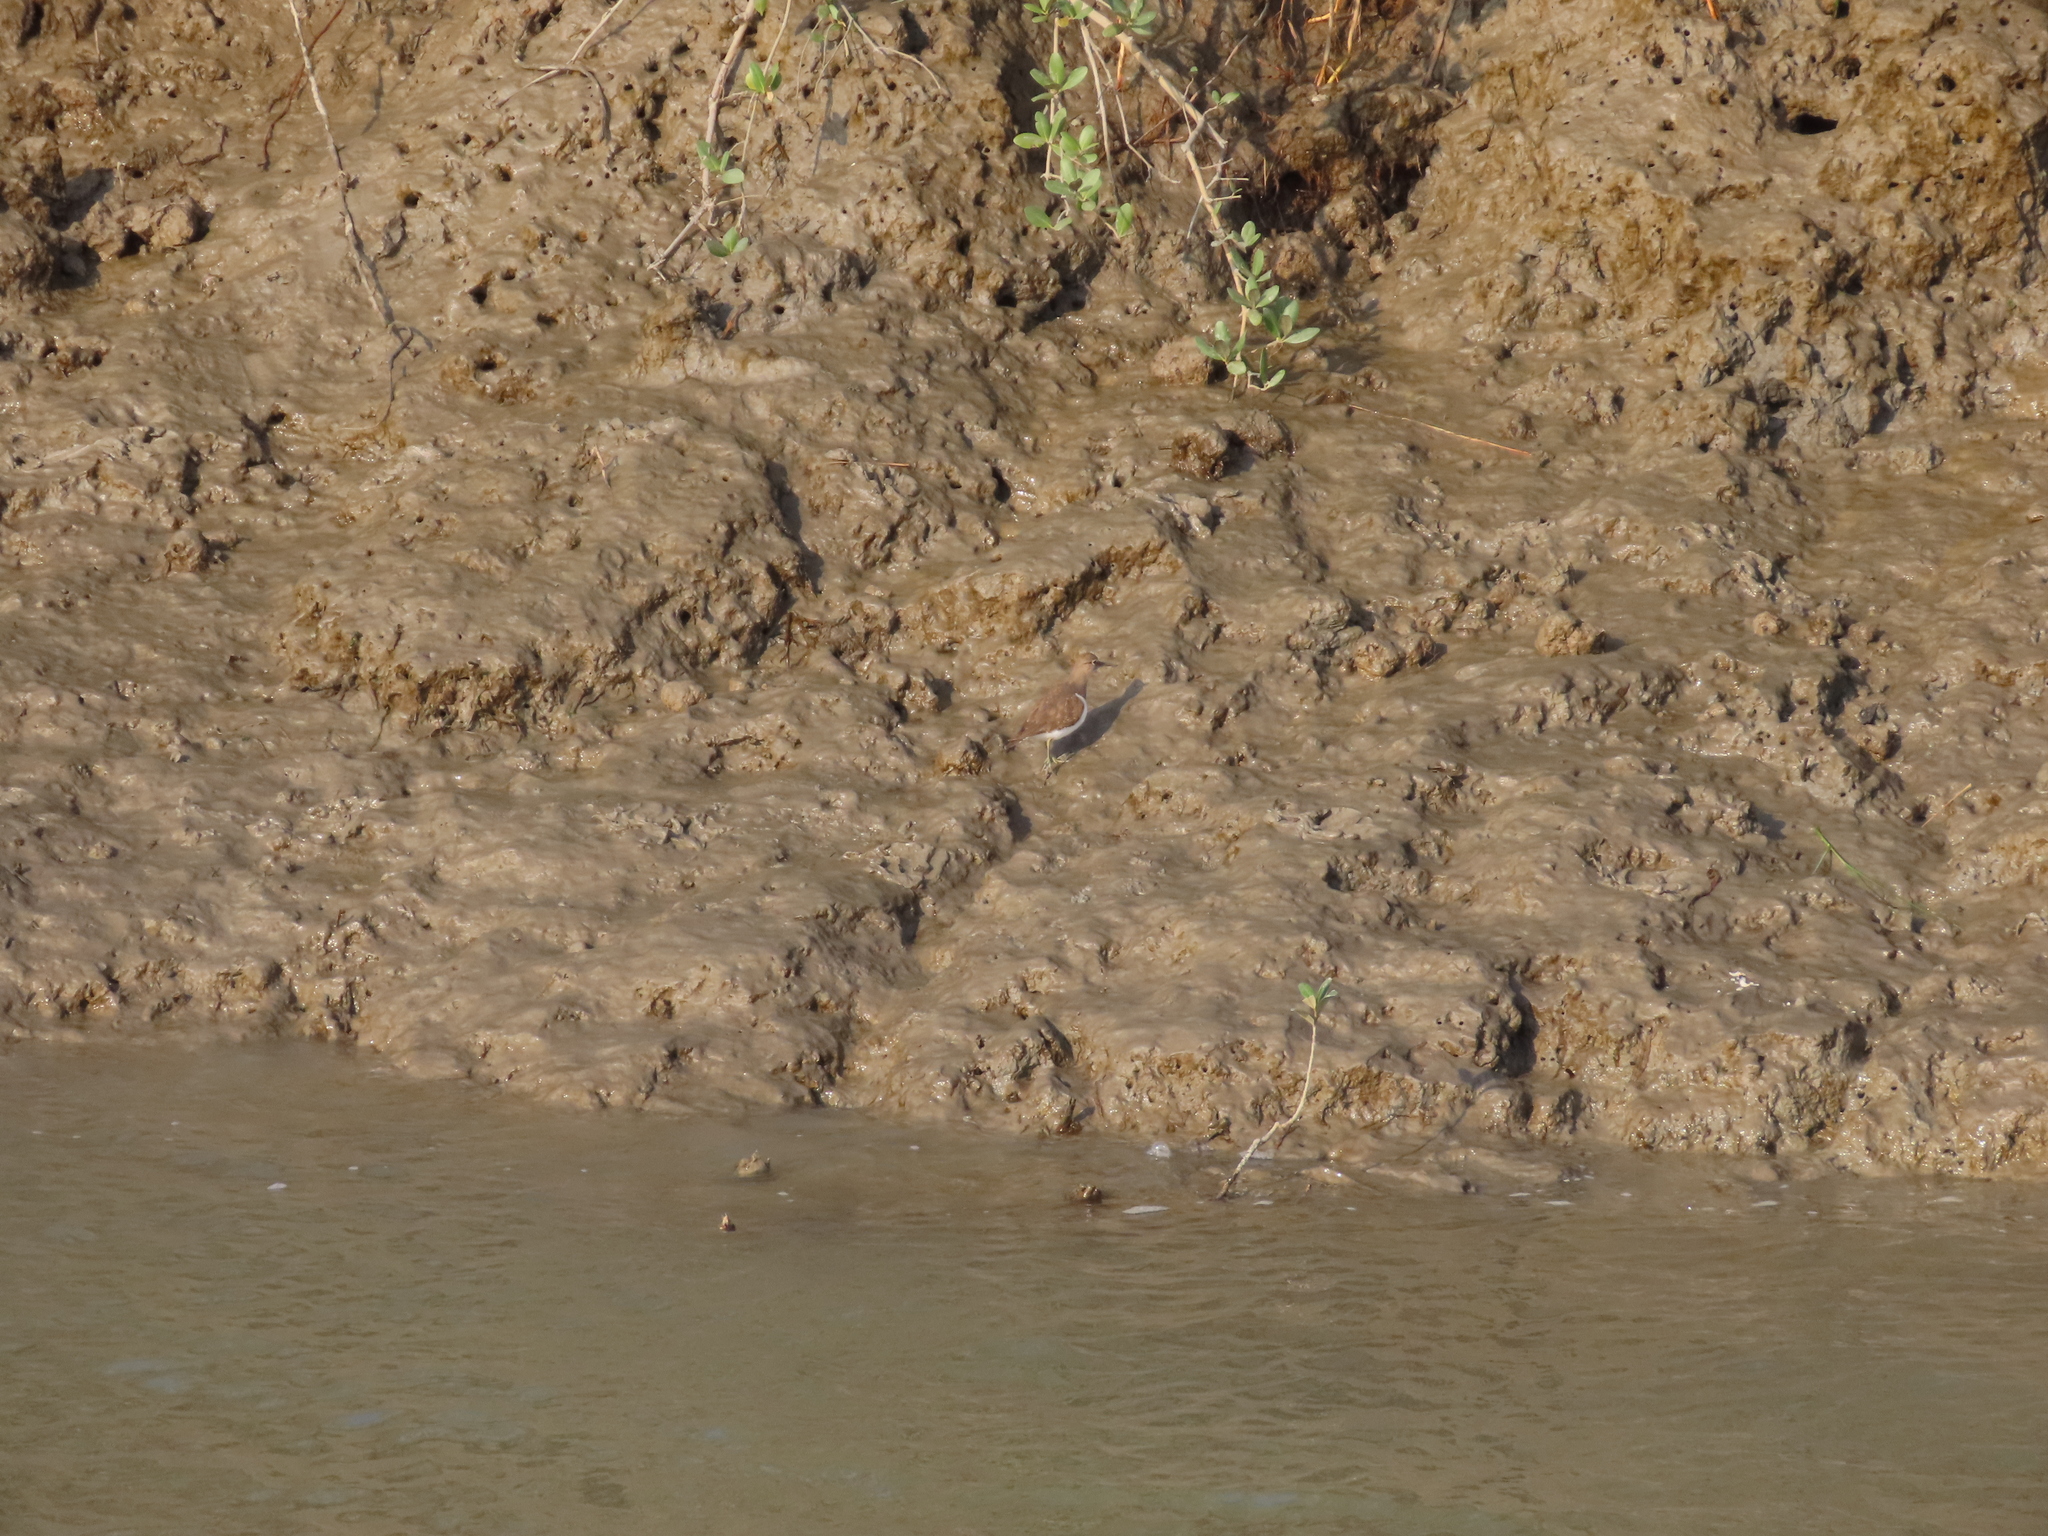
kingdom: Animalia
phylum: Chordata
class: Aves
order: Charadriiformes
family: Scolopacidae
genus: Actitis
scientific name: Actitis hypoleucos
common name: Common sandpiper
